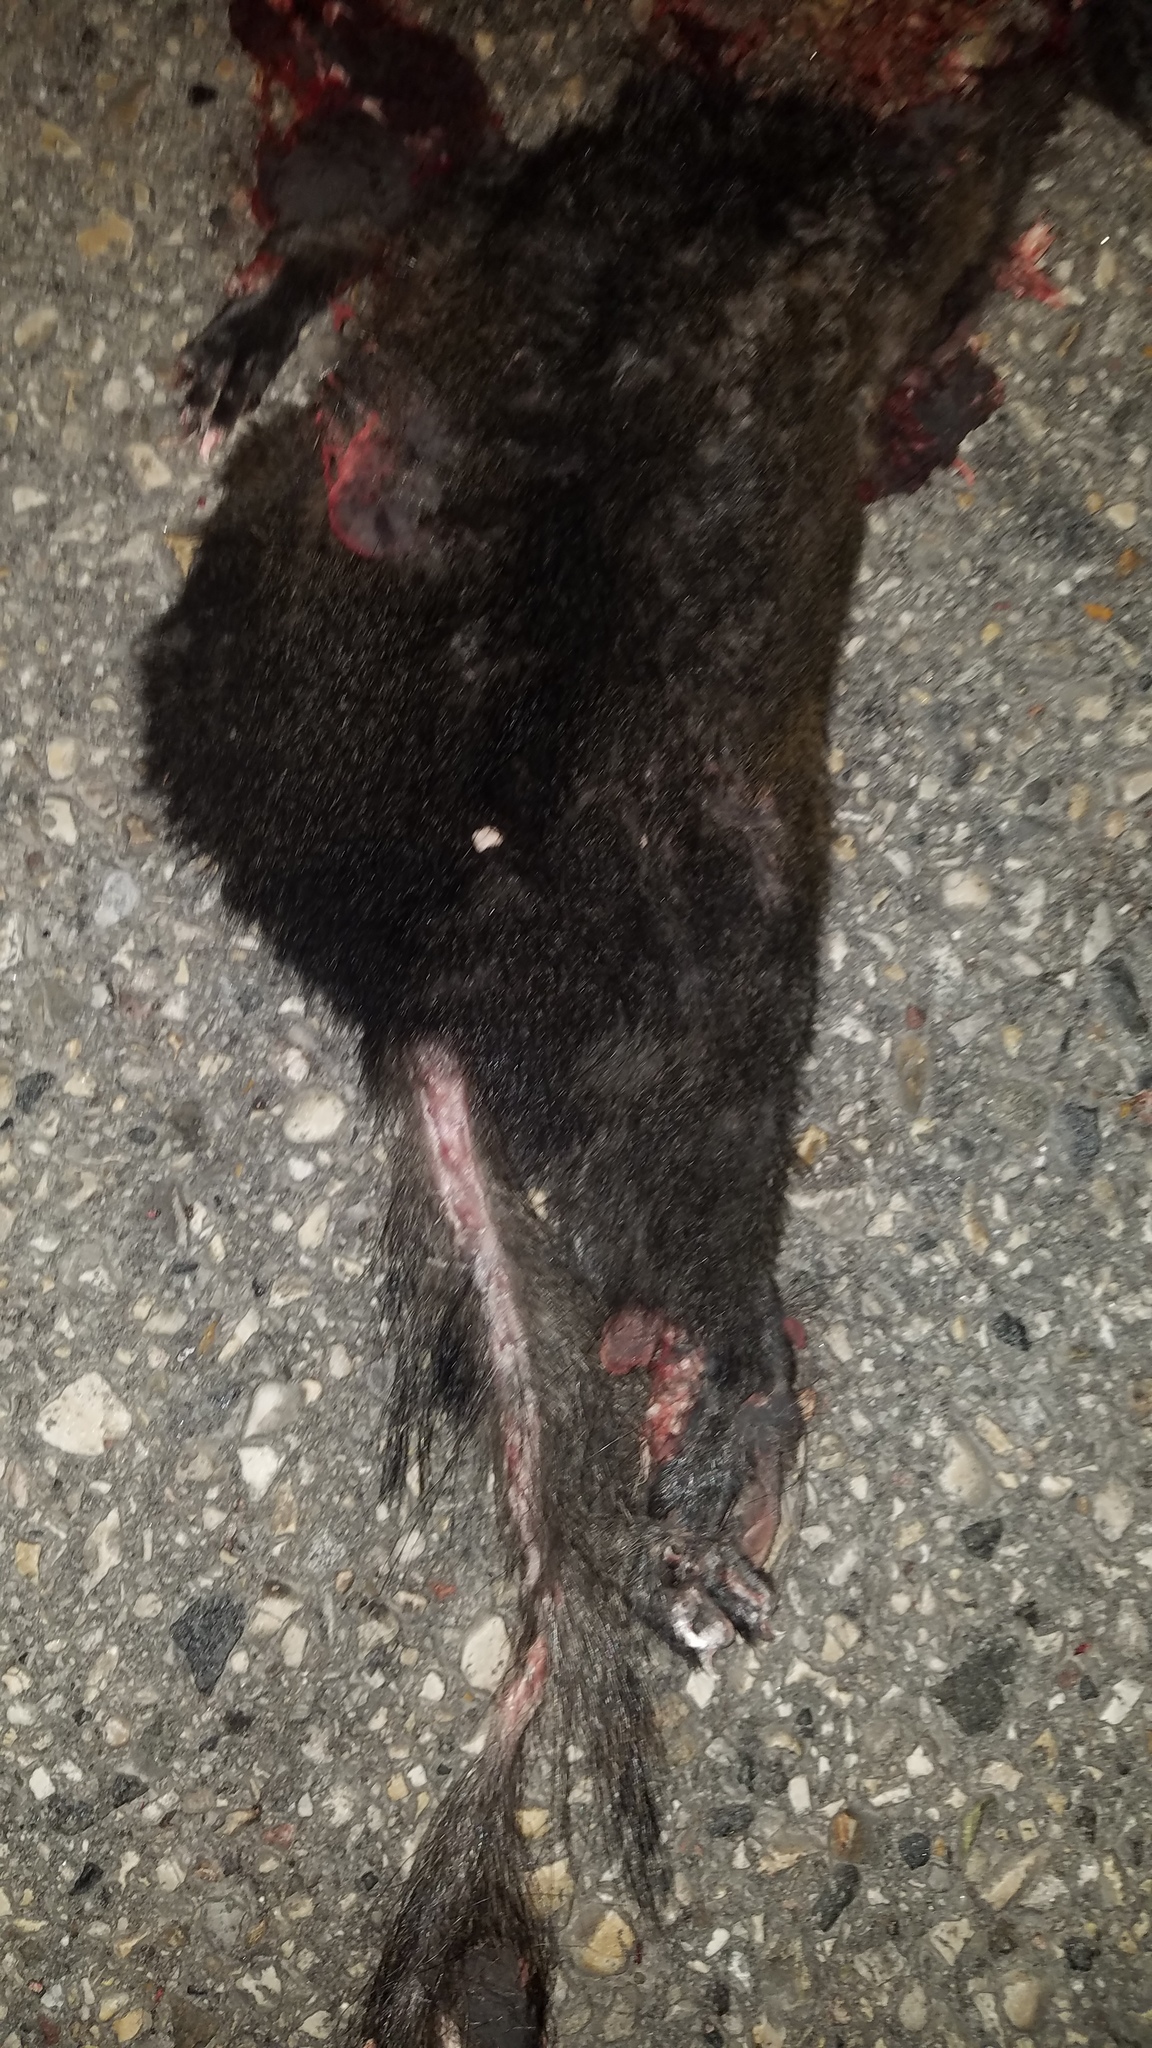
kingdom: Animalia
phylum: Chordata
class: Mammalia
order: Rodentia
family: Sciuridae
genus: Sciurus
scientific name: Sciurus carolinensis
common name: Eastern gray squirrel
